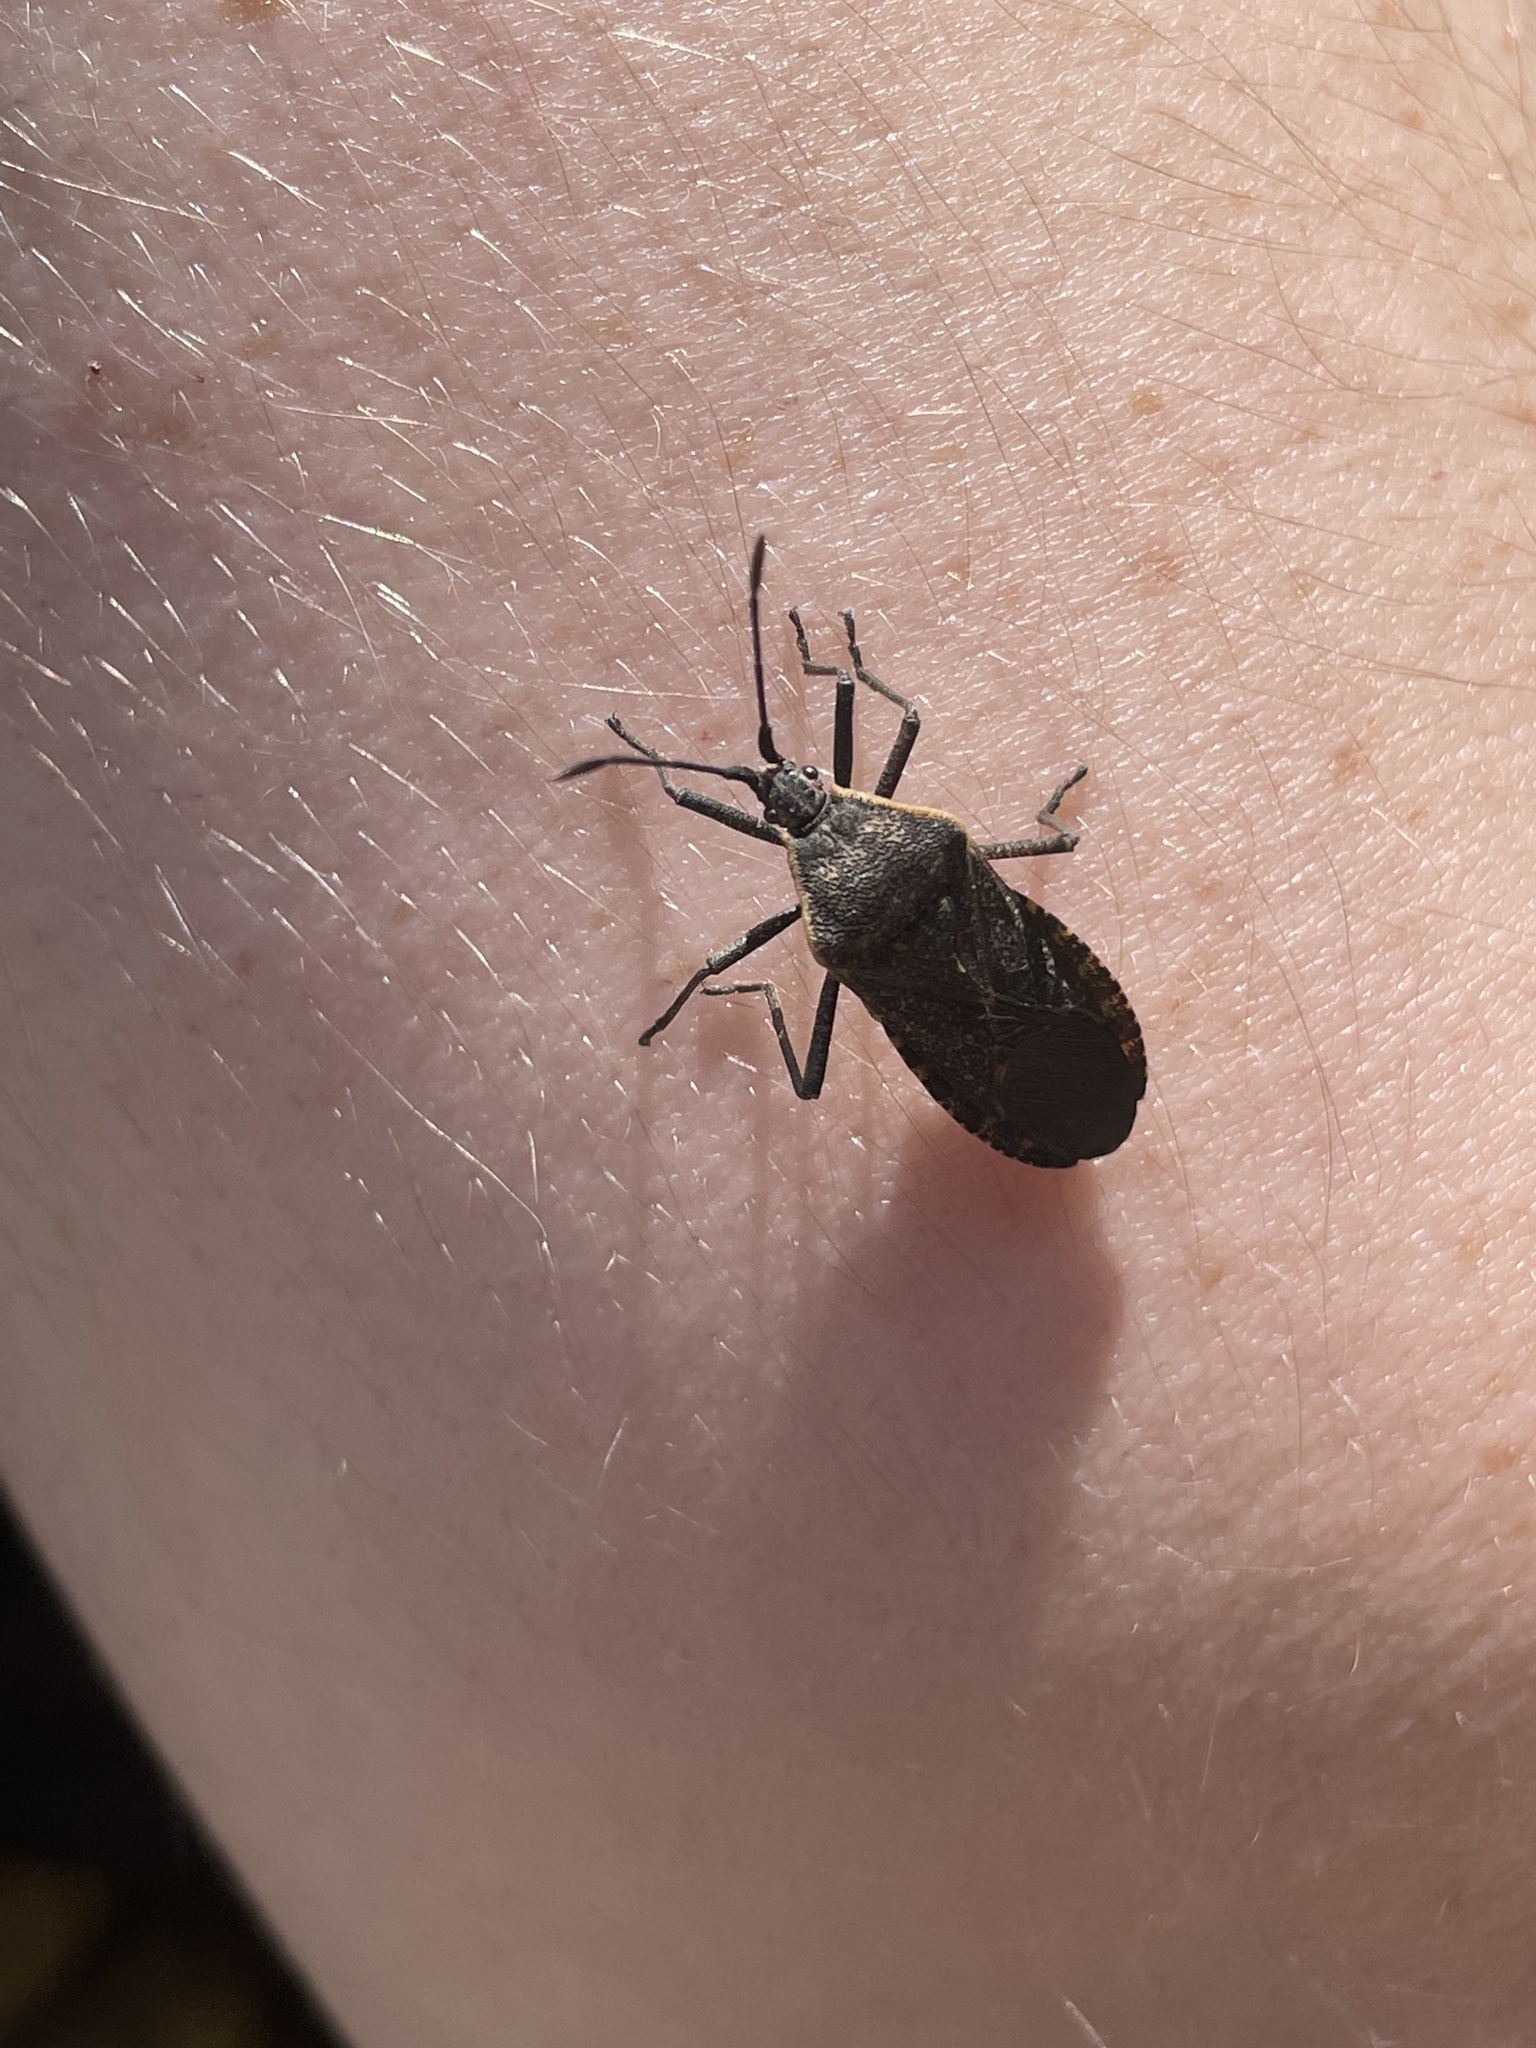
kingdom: Animalia
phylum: Arthropoda
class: Insecta
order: Hemiptera
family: Coreidae
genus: Anasa
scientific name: Anasa tristis
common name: Squash bug
